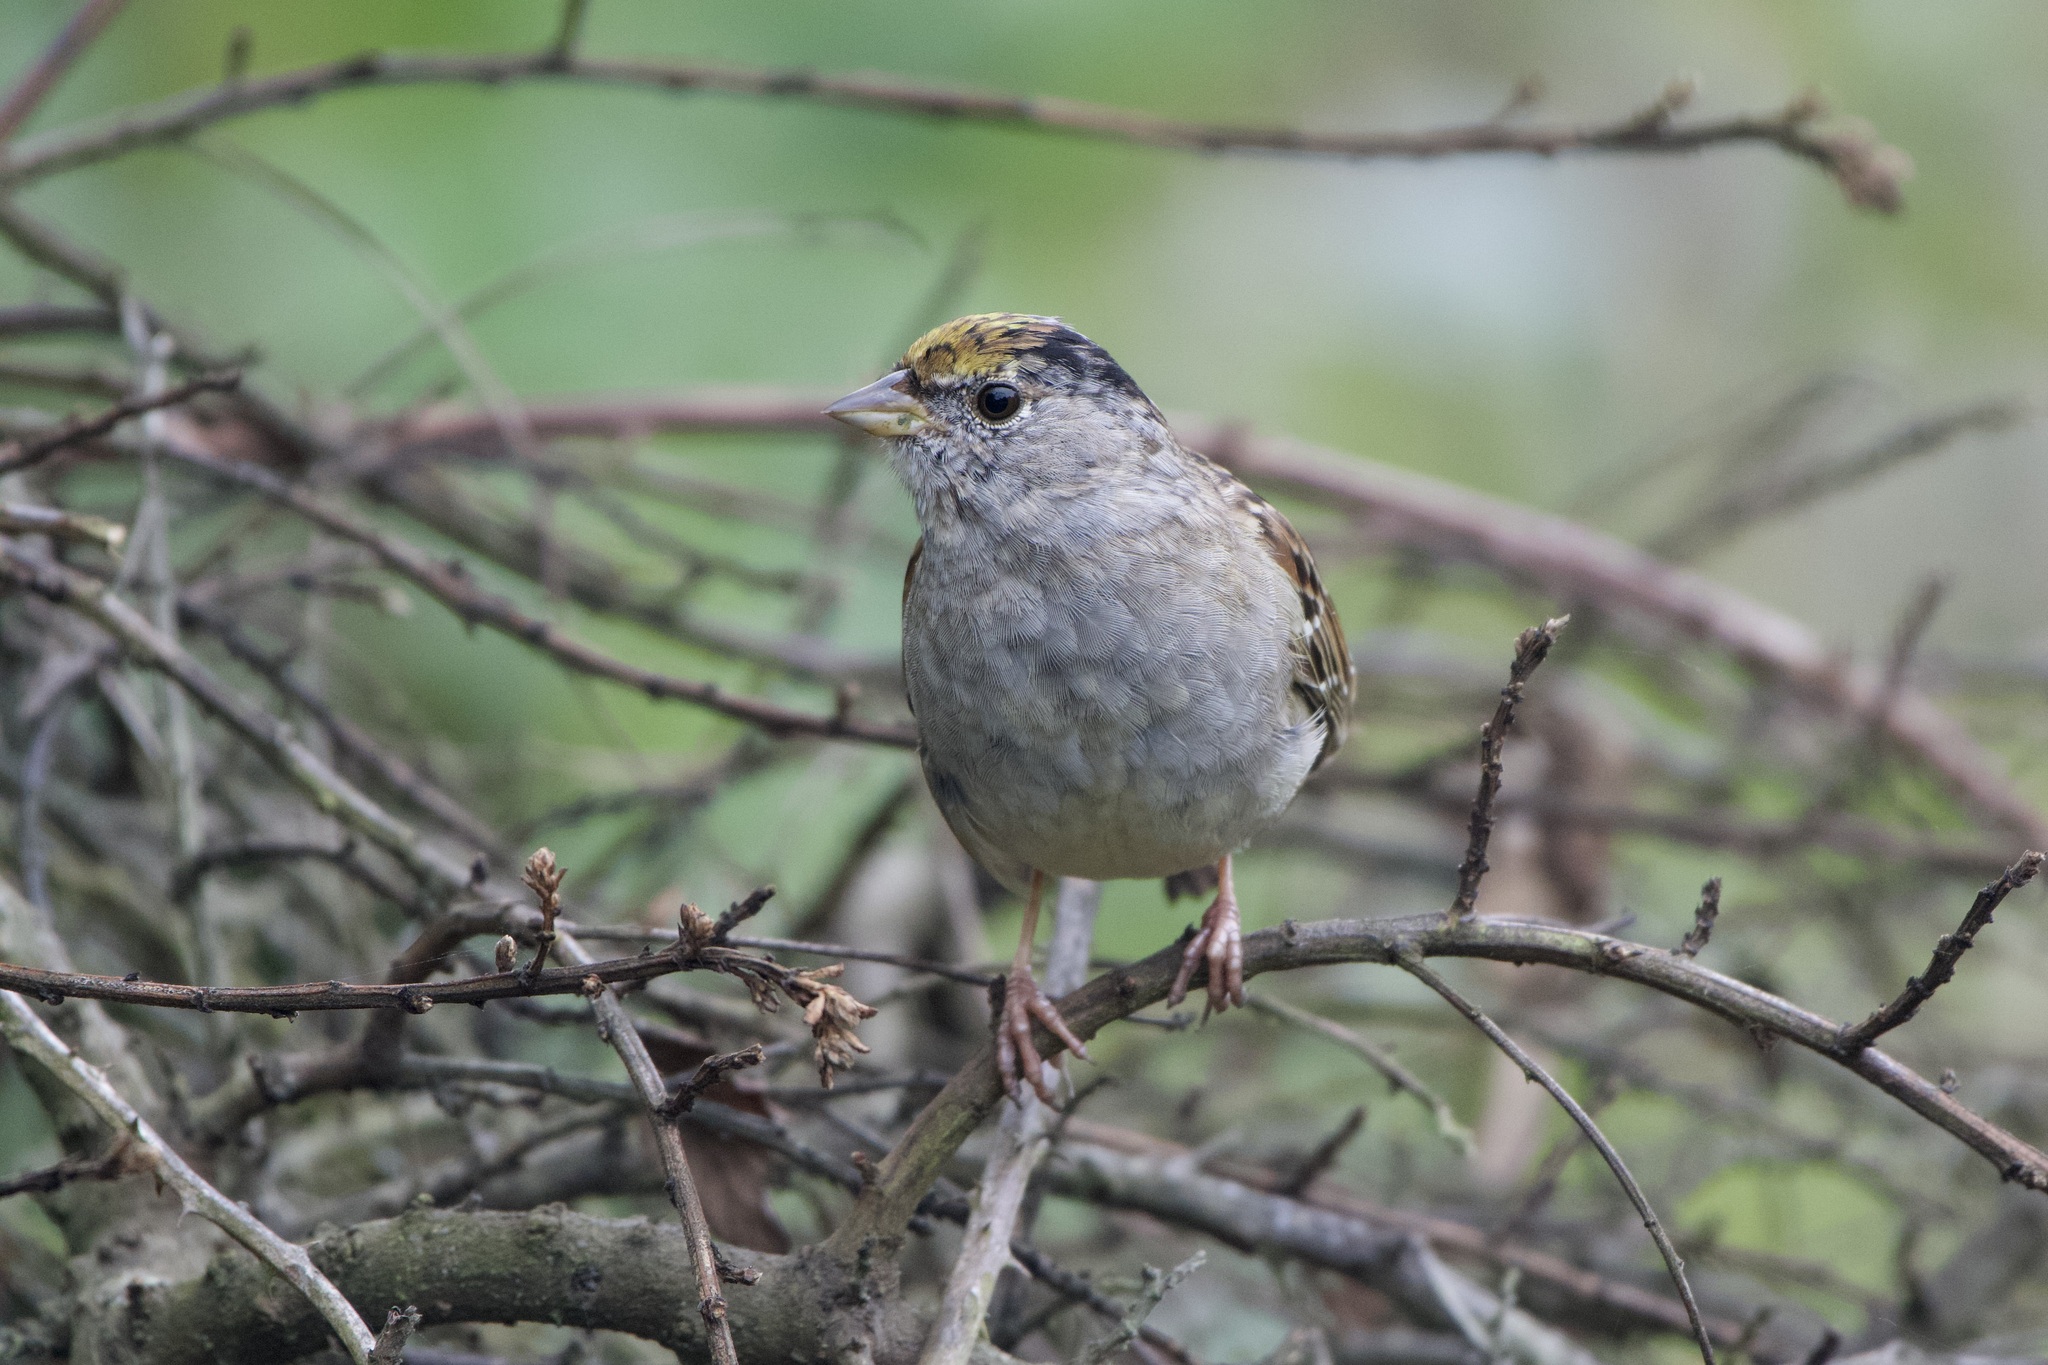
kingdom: Animalia
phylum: Chordata
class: Aves
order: Passeriformes
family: Passerellidae
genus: Zonotrichia
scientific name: Zonotrichia atricapilla
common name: Golden-crowned sparrow
